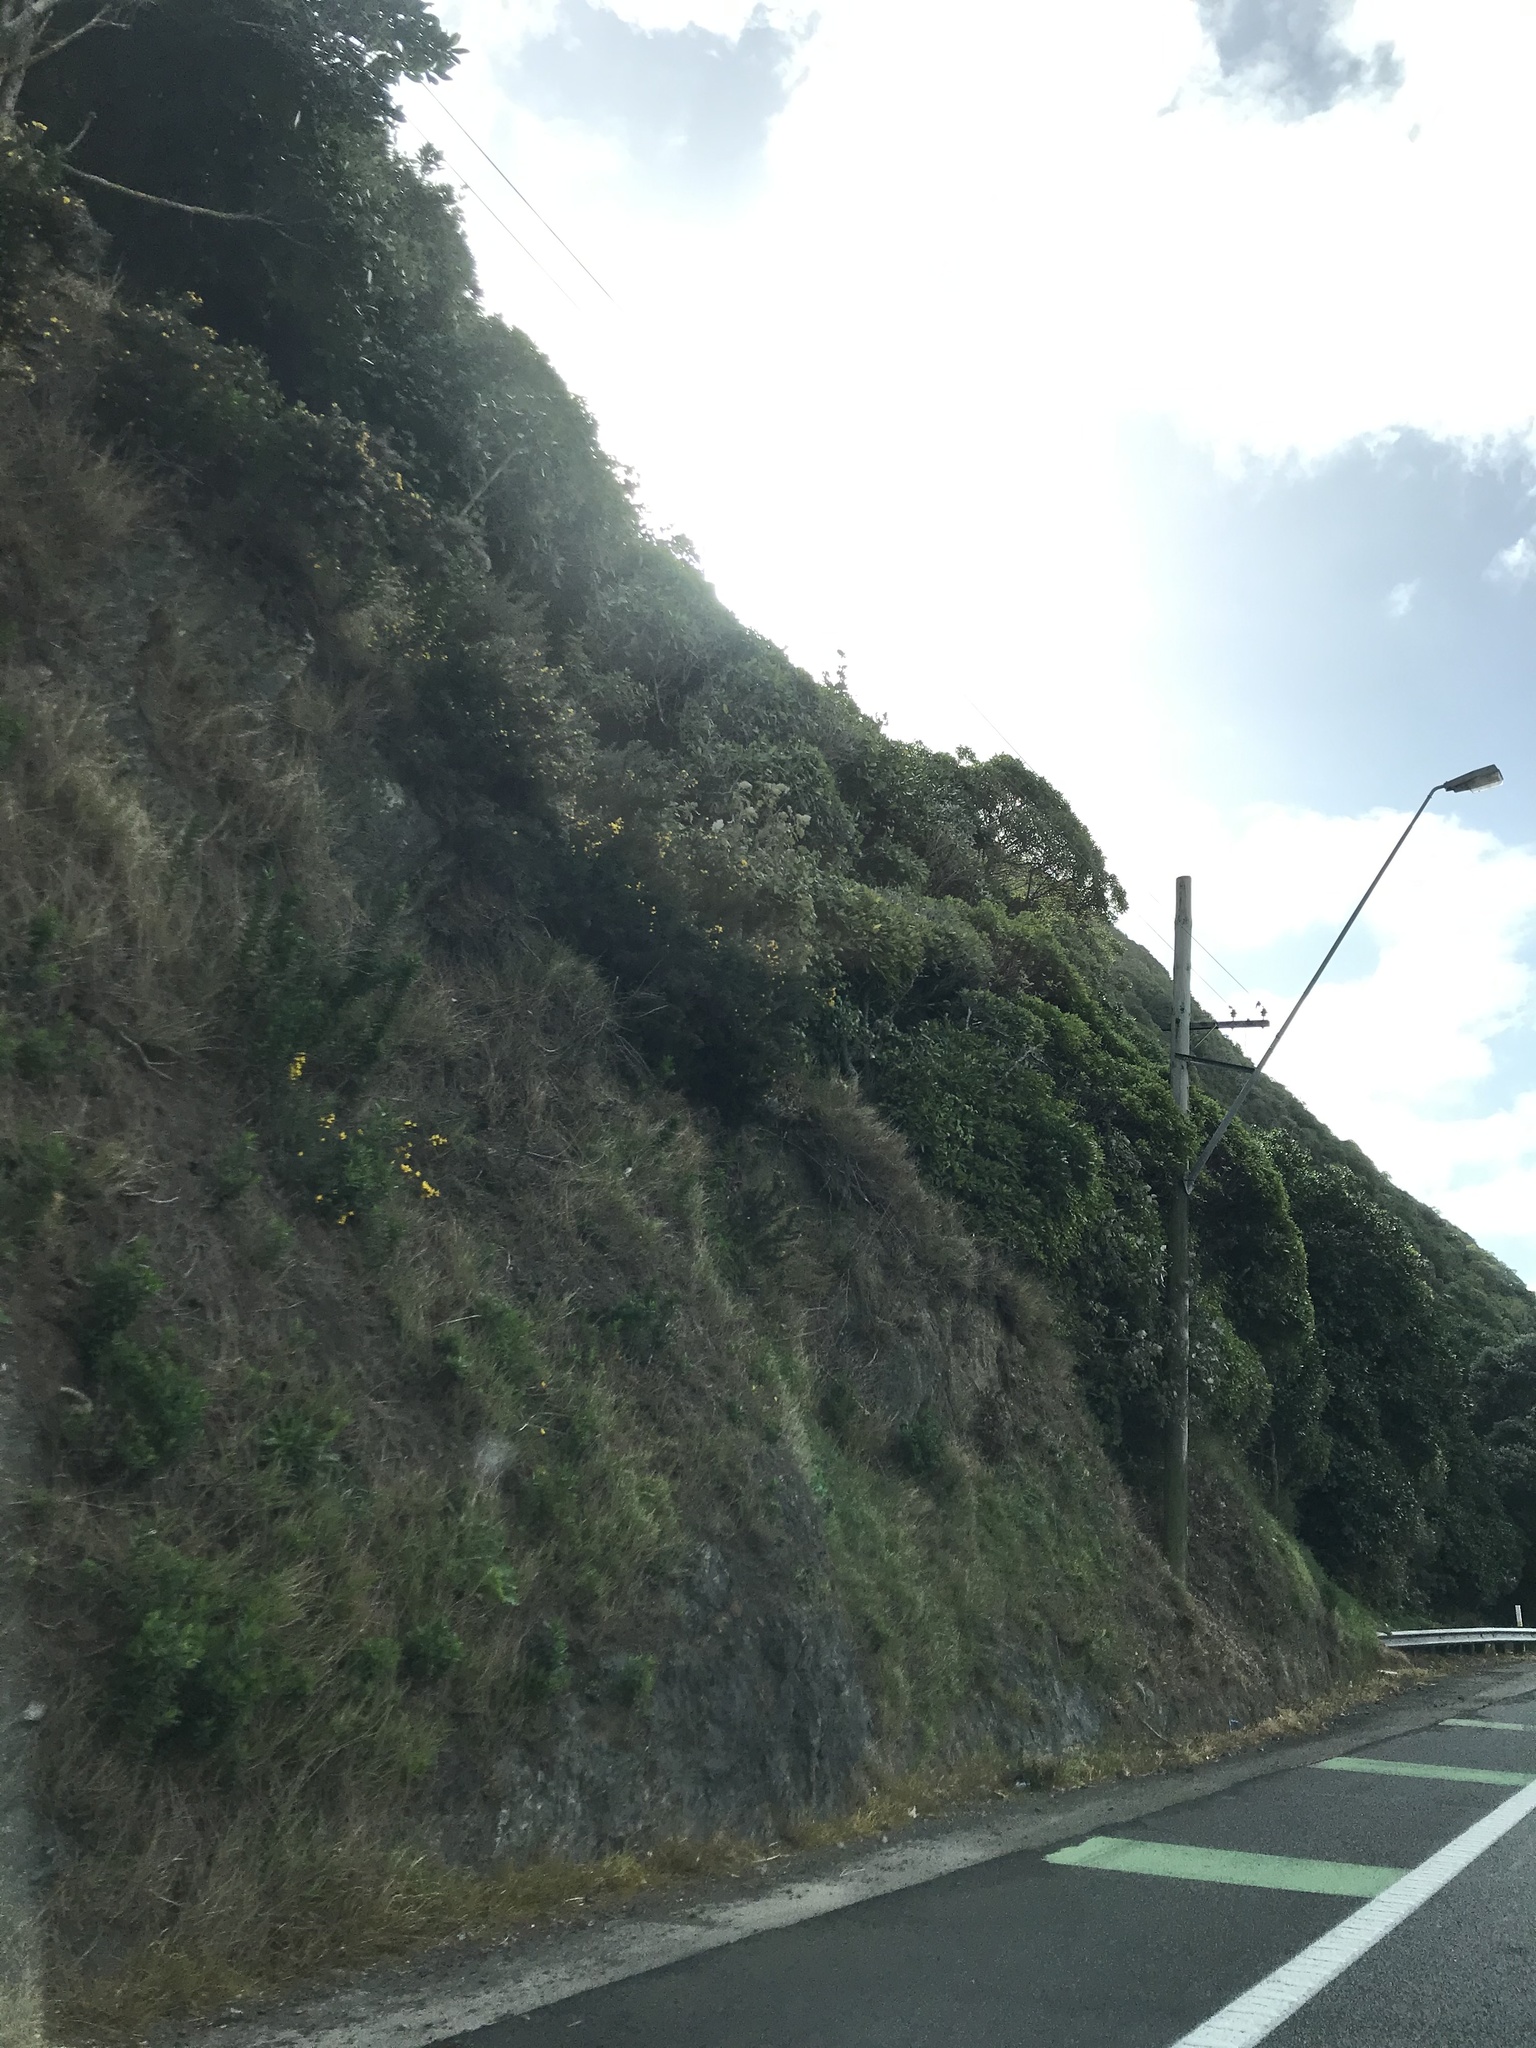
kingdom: Plantae
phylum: Tracheophyta
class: Magnoliopsida
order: Asterales
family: Asteraceae
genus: Brachyglottis
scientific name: Brachyglottis repanda
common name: Hedge ragwort
